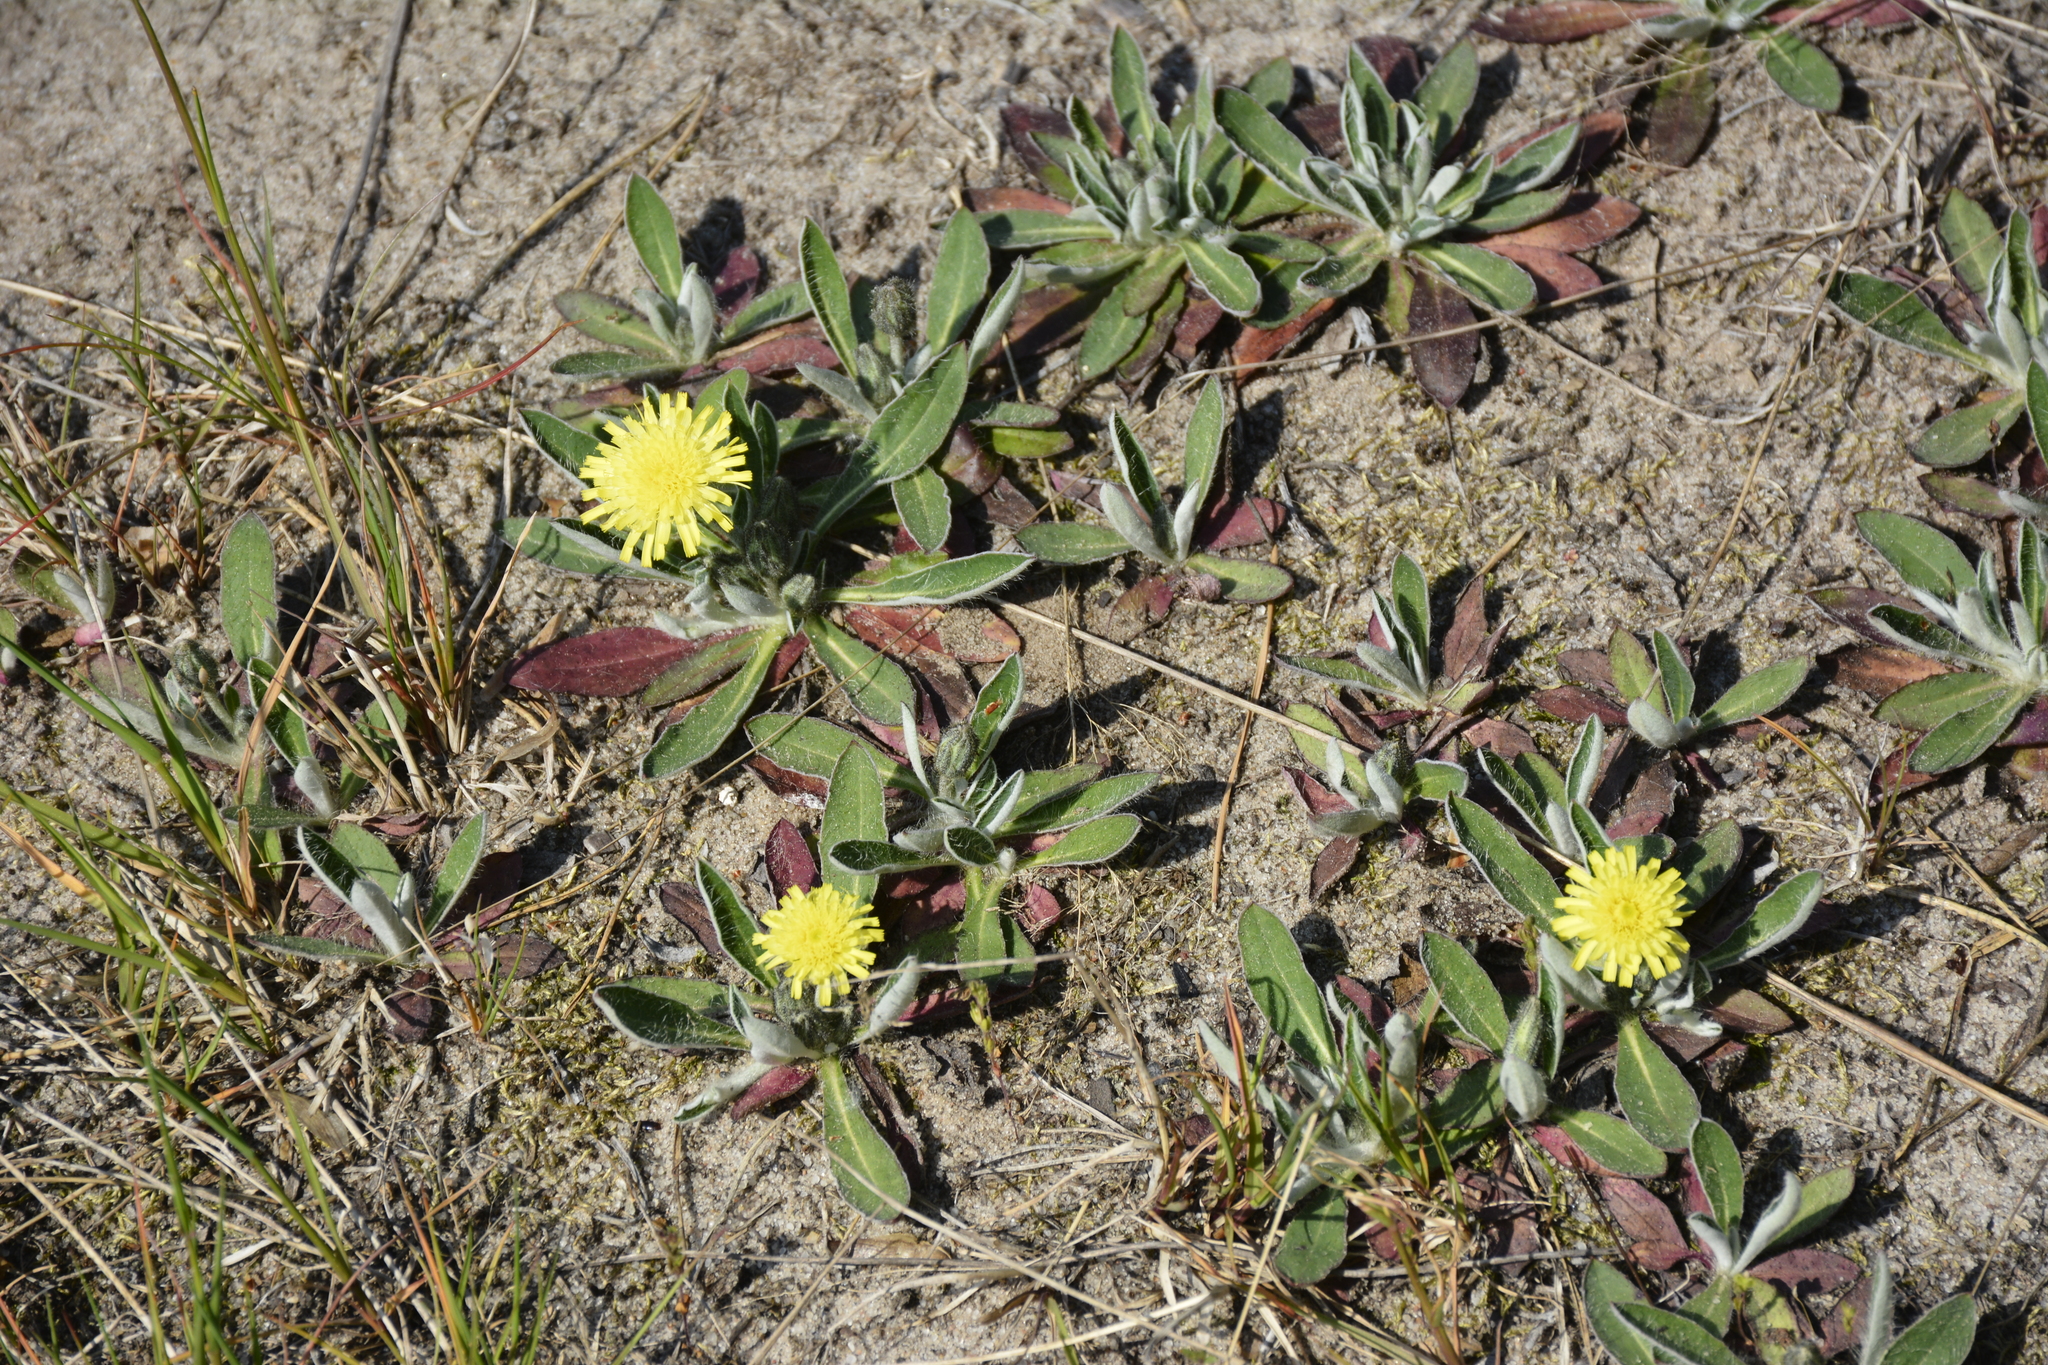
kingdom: Plantae
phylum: Tracheophyta
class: Magnoliopsida
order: Asterales
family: Asteraceae
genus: Pilosella
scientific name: Pilosella officinarum
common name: Mouse-ear hawkweed
